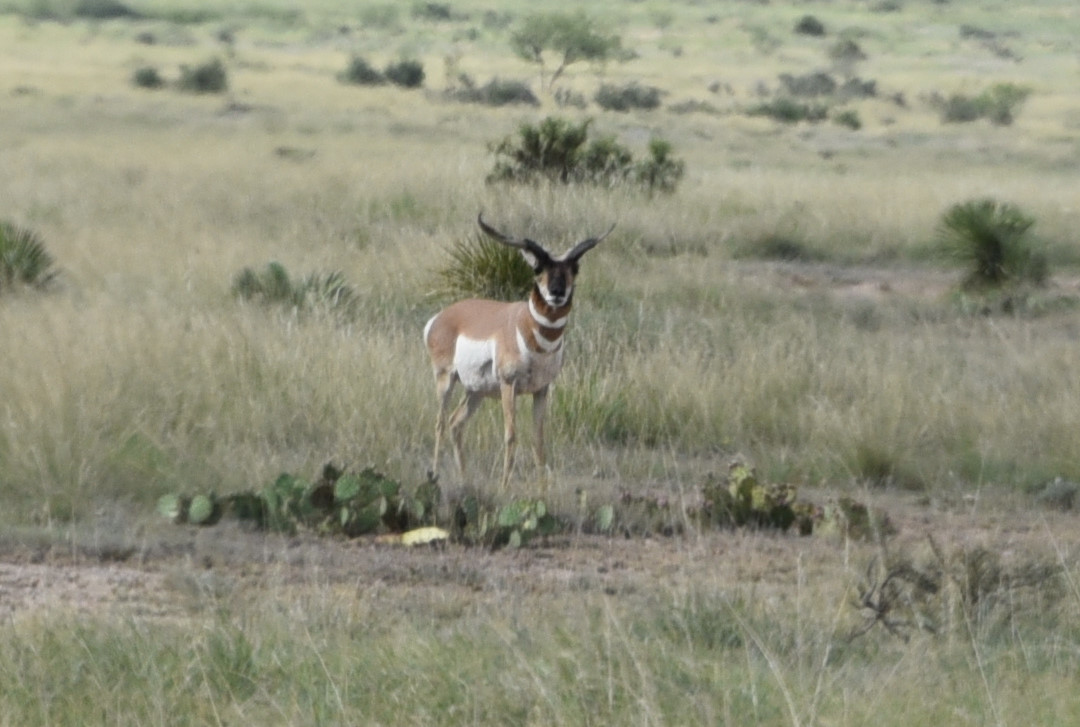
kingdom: Animalia
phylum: Chordata
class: Mammalia
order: Artiodactyla
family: Antilocapridae
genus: Antilocapra
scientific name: Antilocapra americana
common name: Pronghorn
